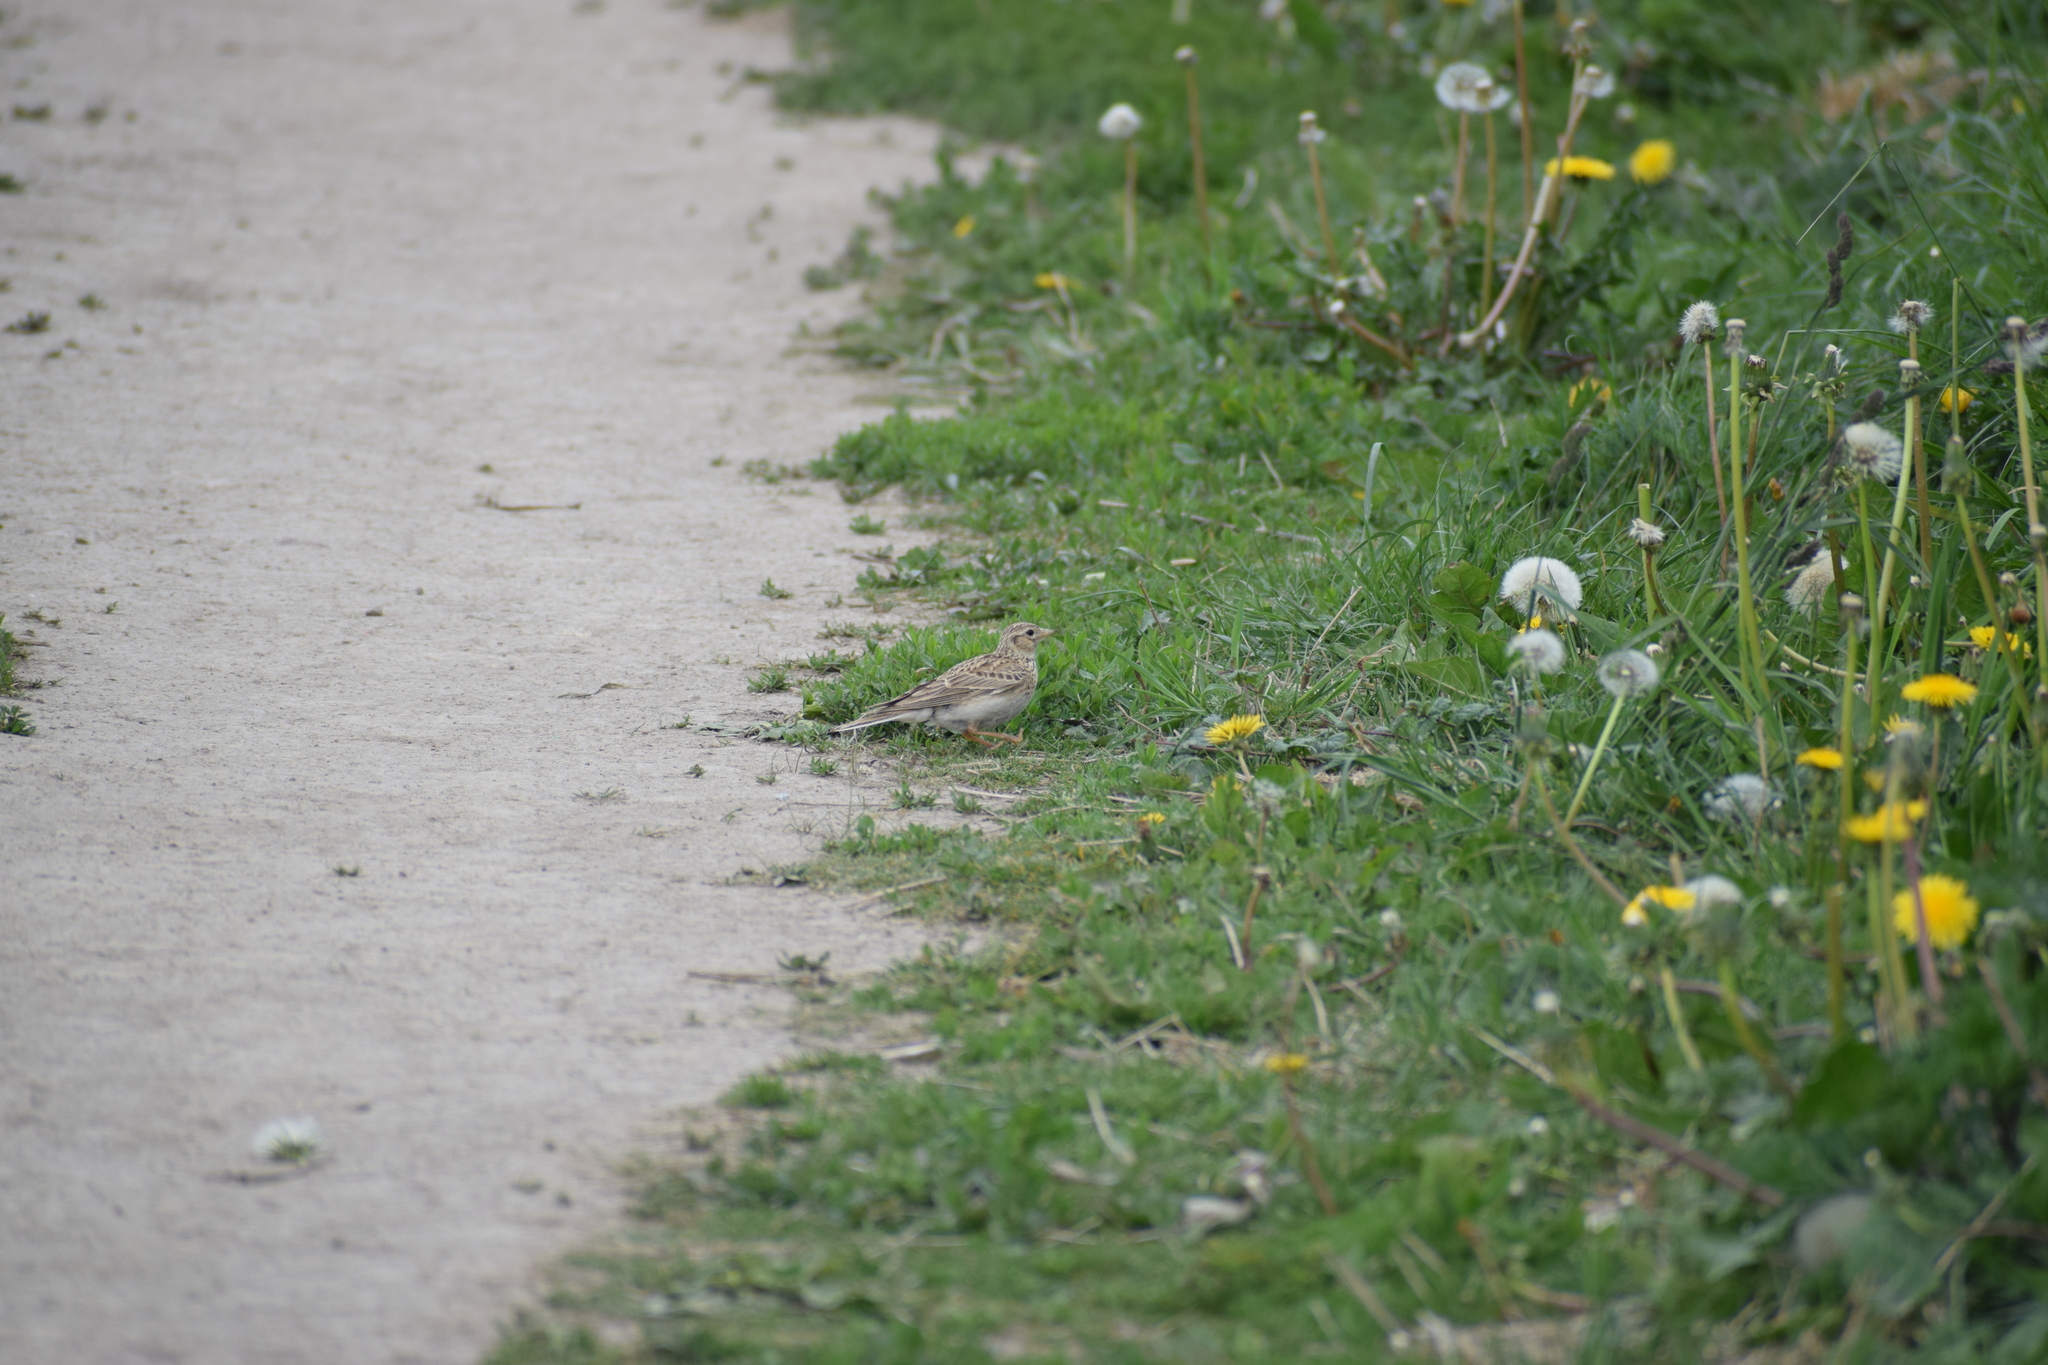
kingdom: Animalia
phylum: Chordata
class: Aves
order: Passeriformes
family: Alaudidae
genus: Alauda
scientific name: Alauda arvensis
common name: Eurasian skylark
